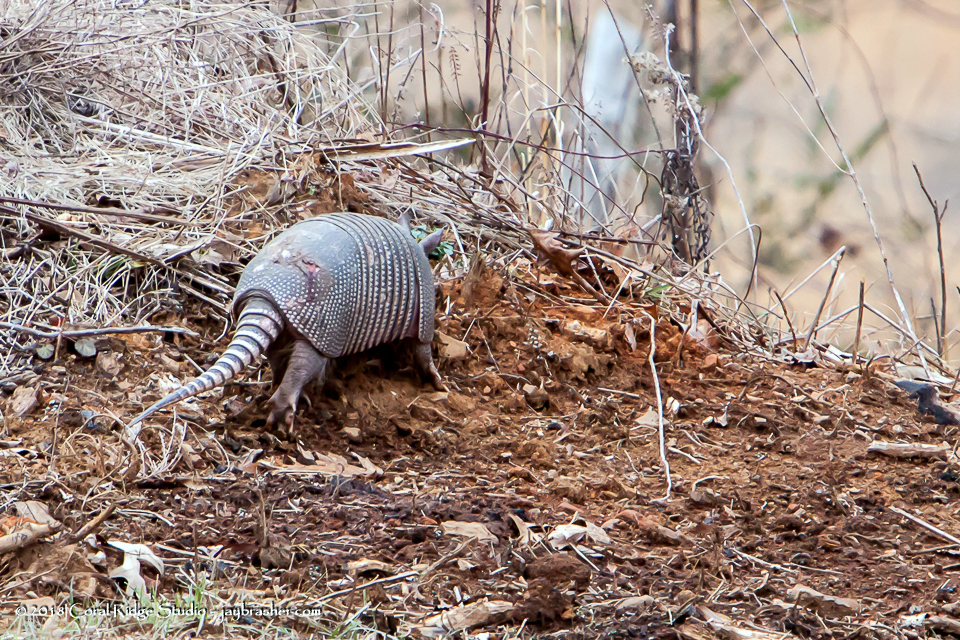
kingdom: Animalia
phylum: Chordata
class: Mammalia
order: Cingulata
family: Dasypodidae
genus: Dasypus
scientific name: Dasypus novemcinctus
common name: Nine-banded armadillo
